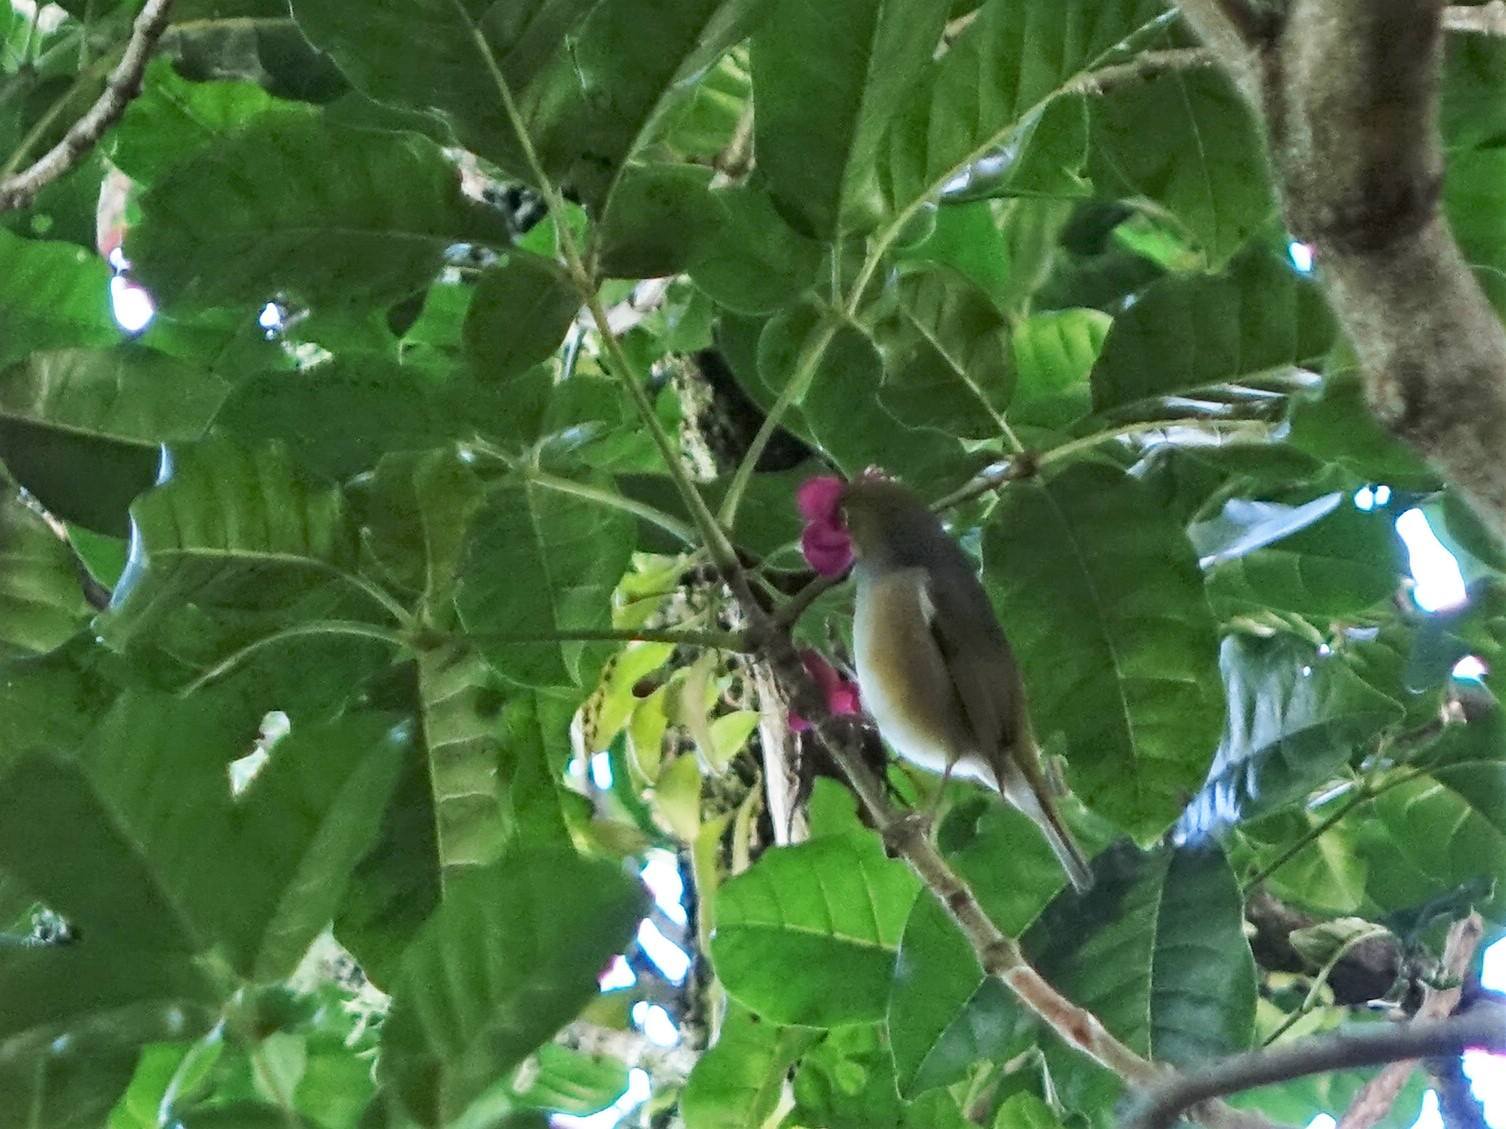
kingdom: Animalia
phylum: Chordata
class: Aves
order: Passeriformes
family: Zosteropidae
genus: Zosterops
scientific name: Zosterops lateralis
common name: Silvereye
